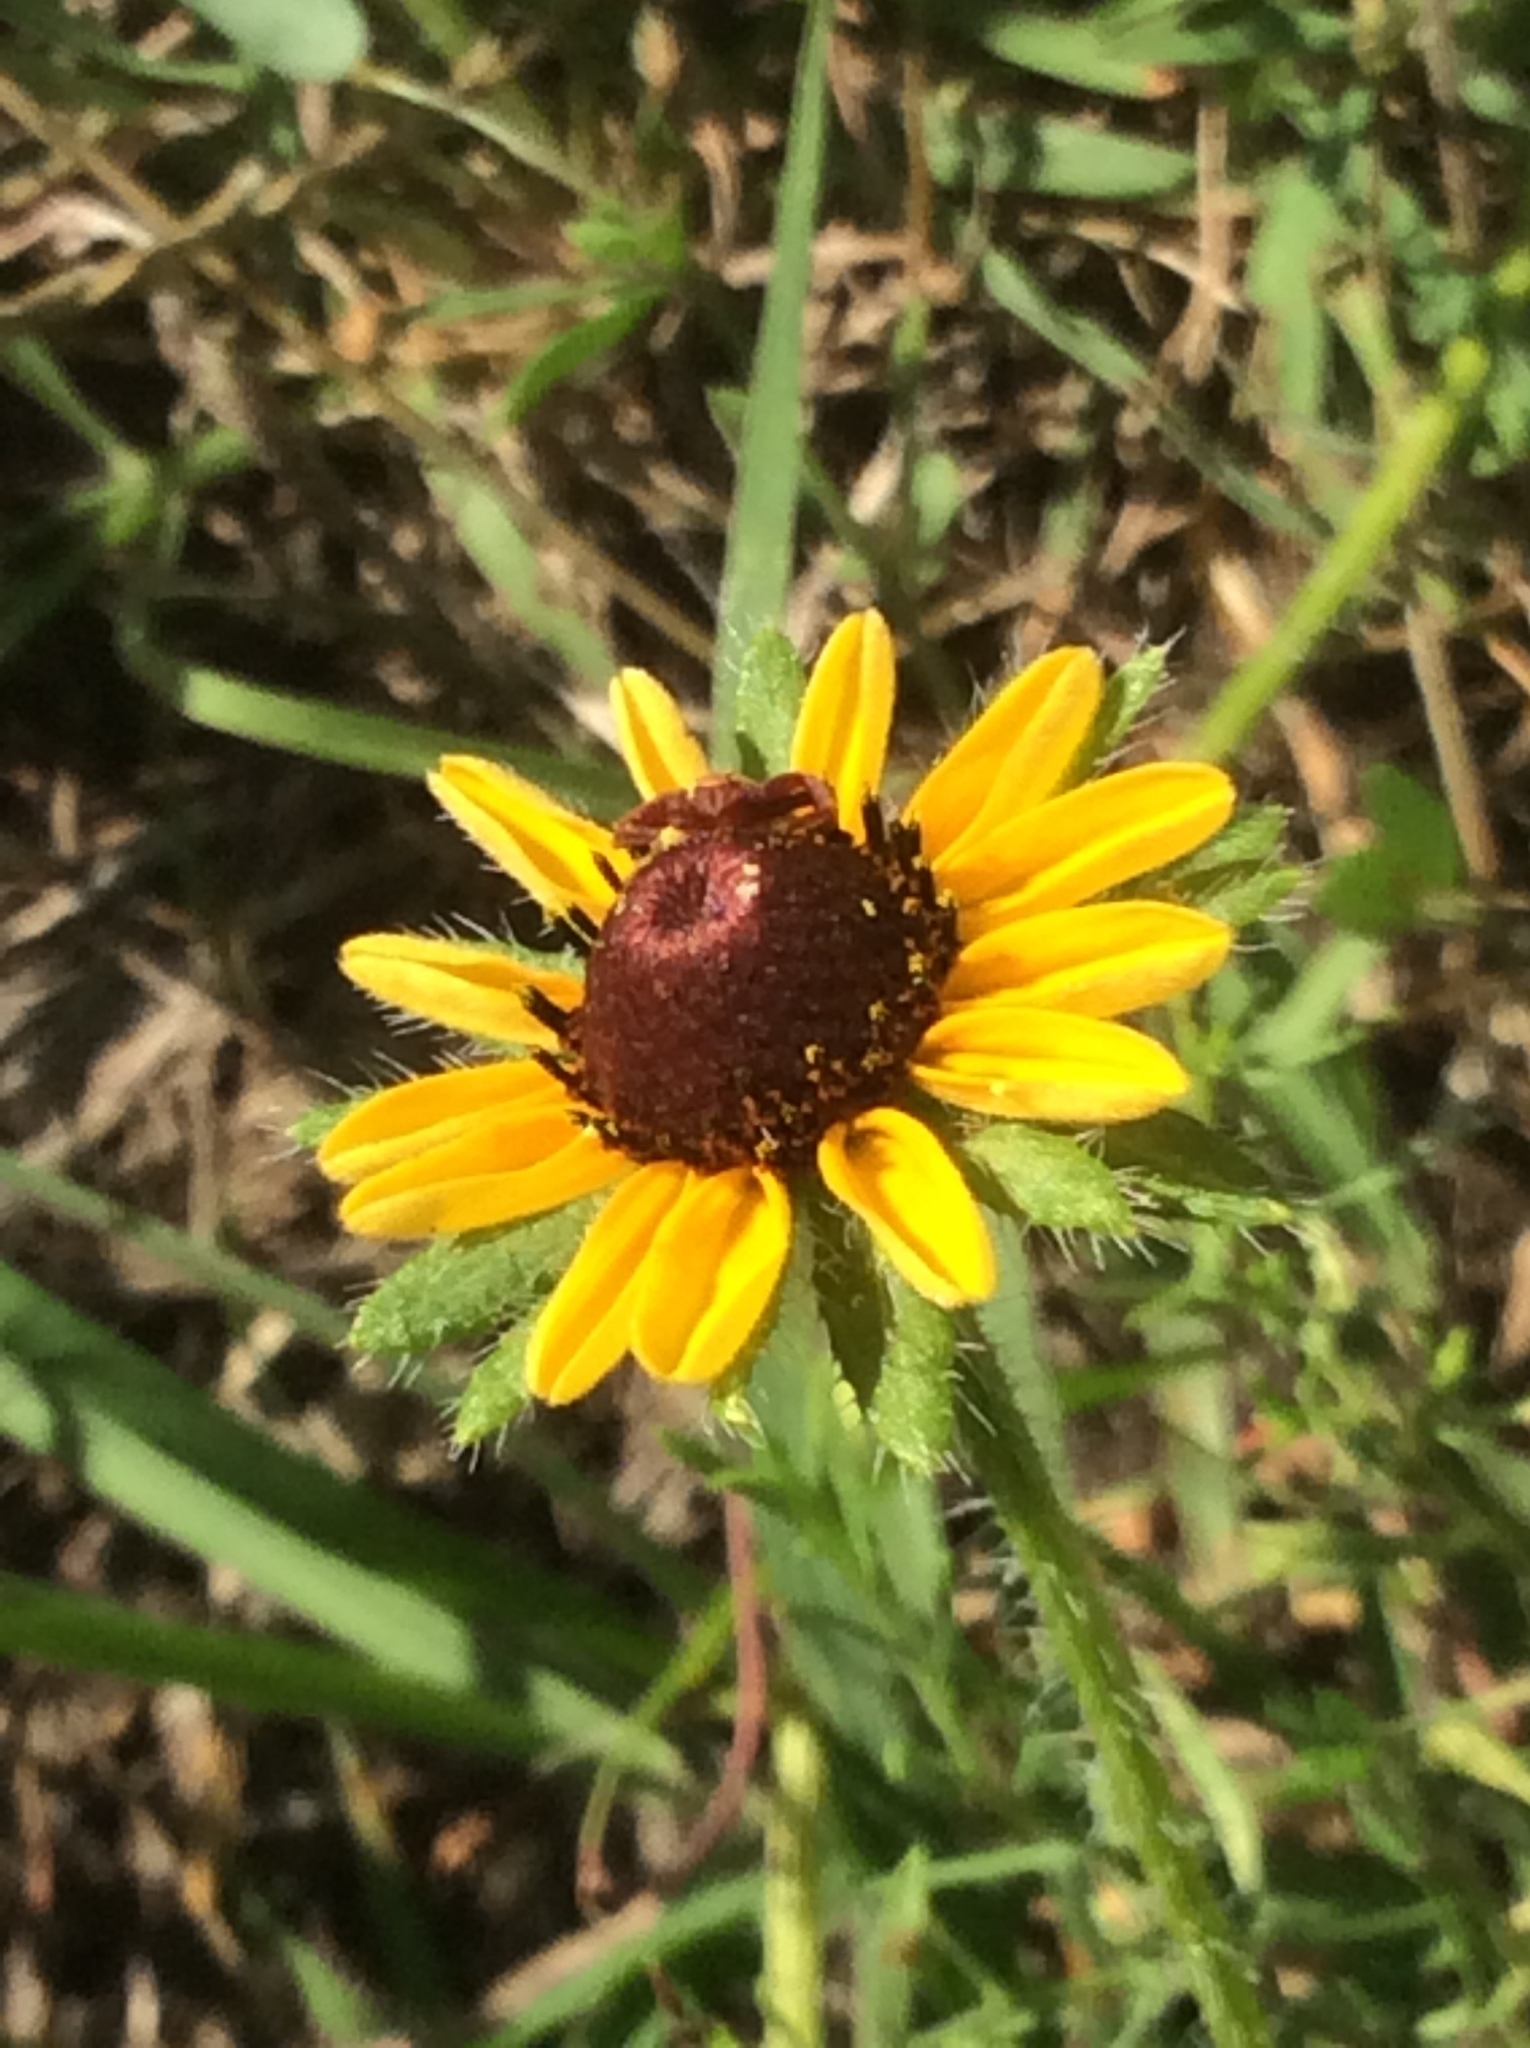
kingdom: Plantae
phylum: Tracheophyta
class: Magnoliopsida
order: Asterales
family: Asteraceae
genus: Rudbeckia
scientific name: Rudbeckia hirta
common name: Black-eyed-susan
